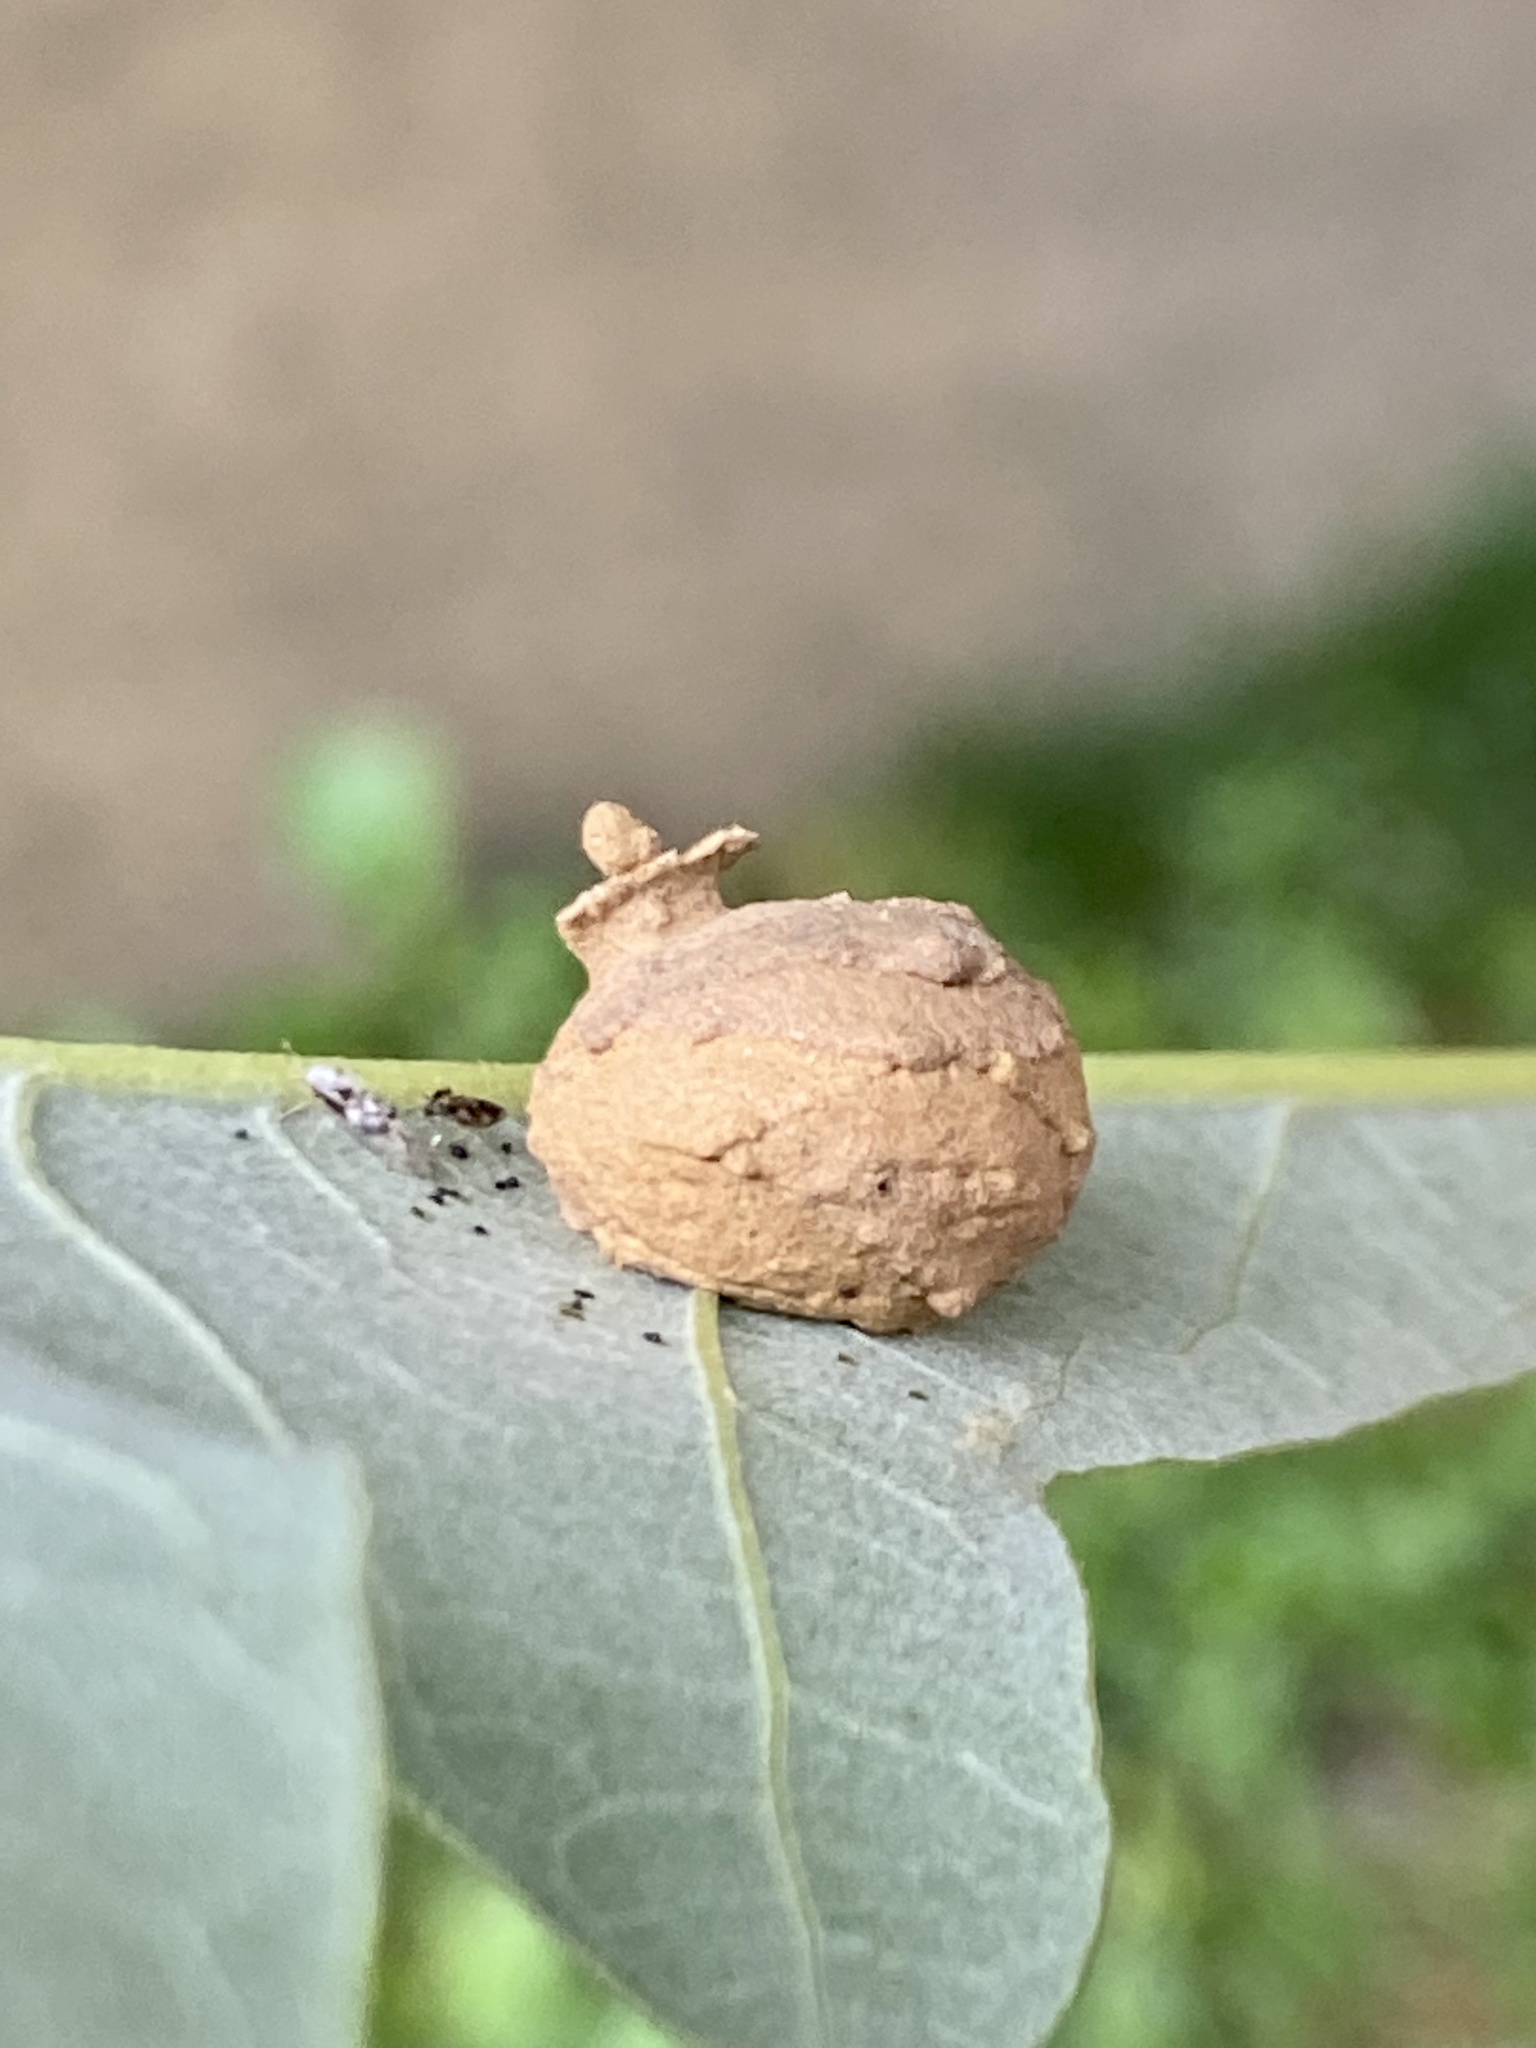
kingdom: Animalia
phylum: Arthropoda
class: Insecta
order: Hymenoptera
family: Vespidae
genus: Eumenes
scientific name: Eumenes
